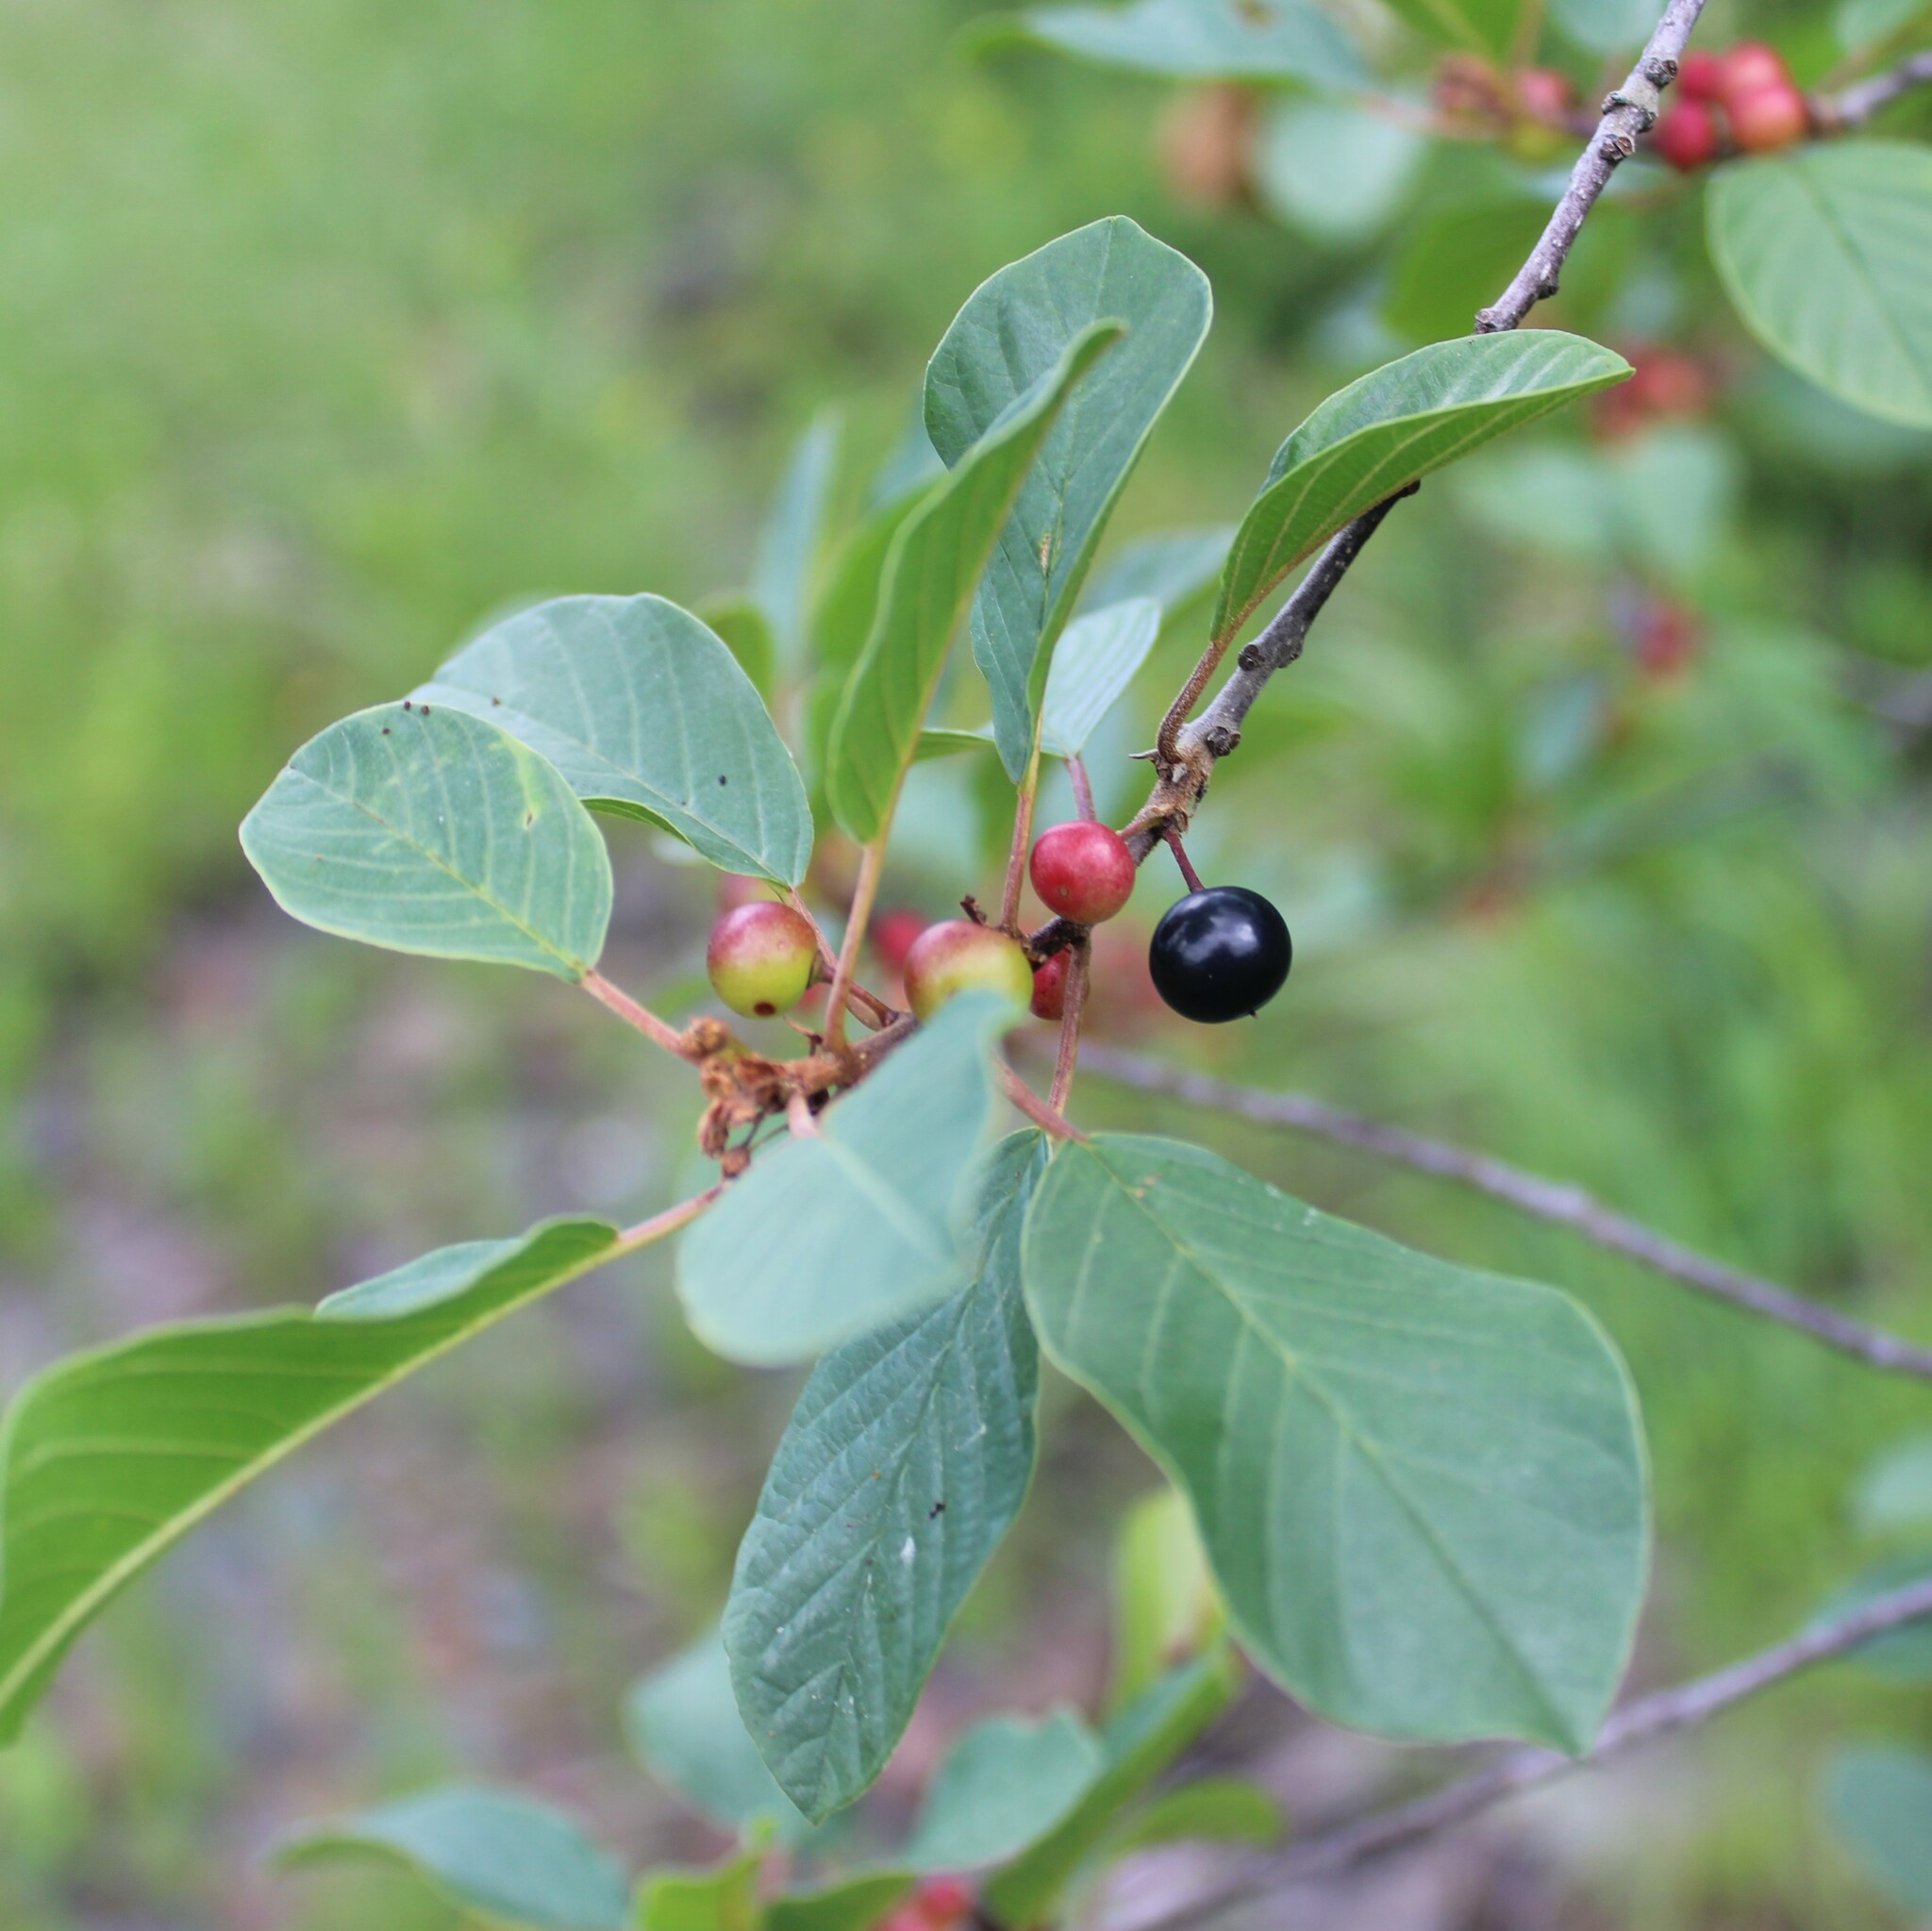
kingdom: Plantae
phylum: Tracheophyta
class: Magnoliopsida
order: Rosales
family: Rhamnaceae
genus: Frangula
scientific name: Frangula alnus
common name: Alder buckthorn
